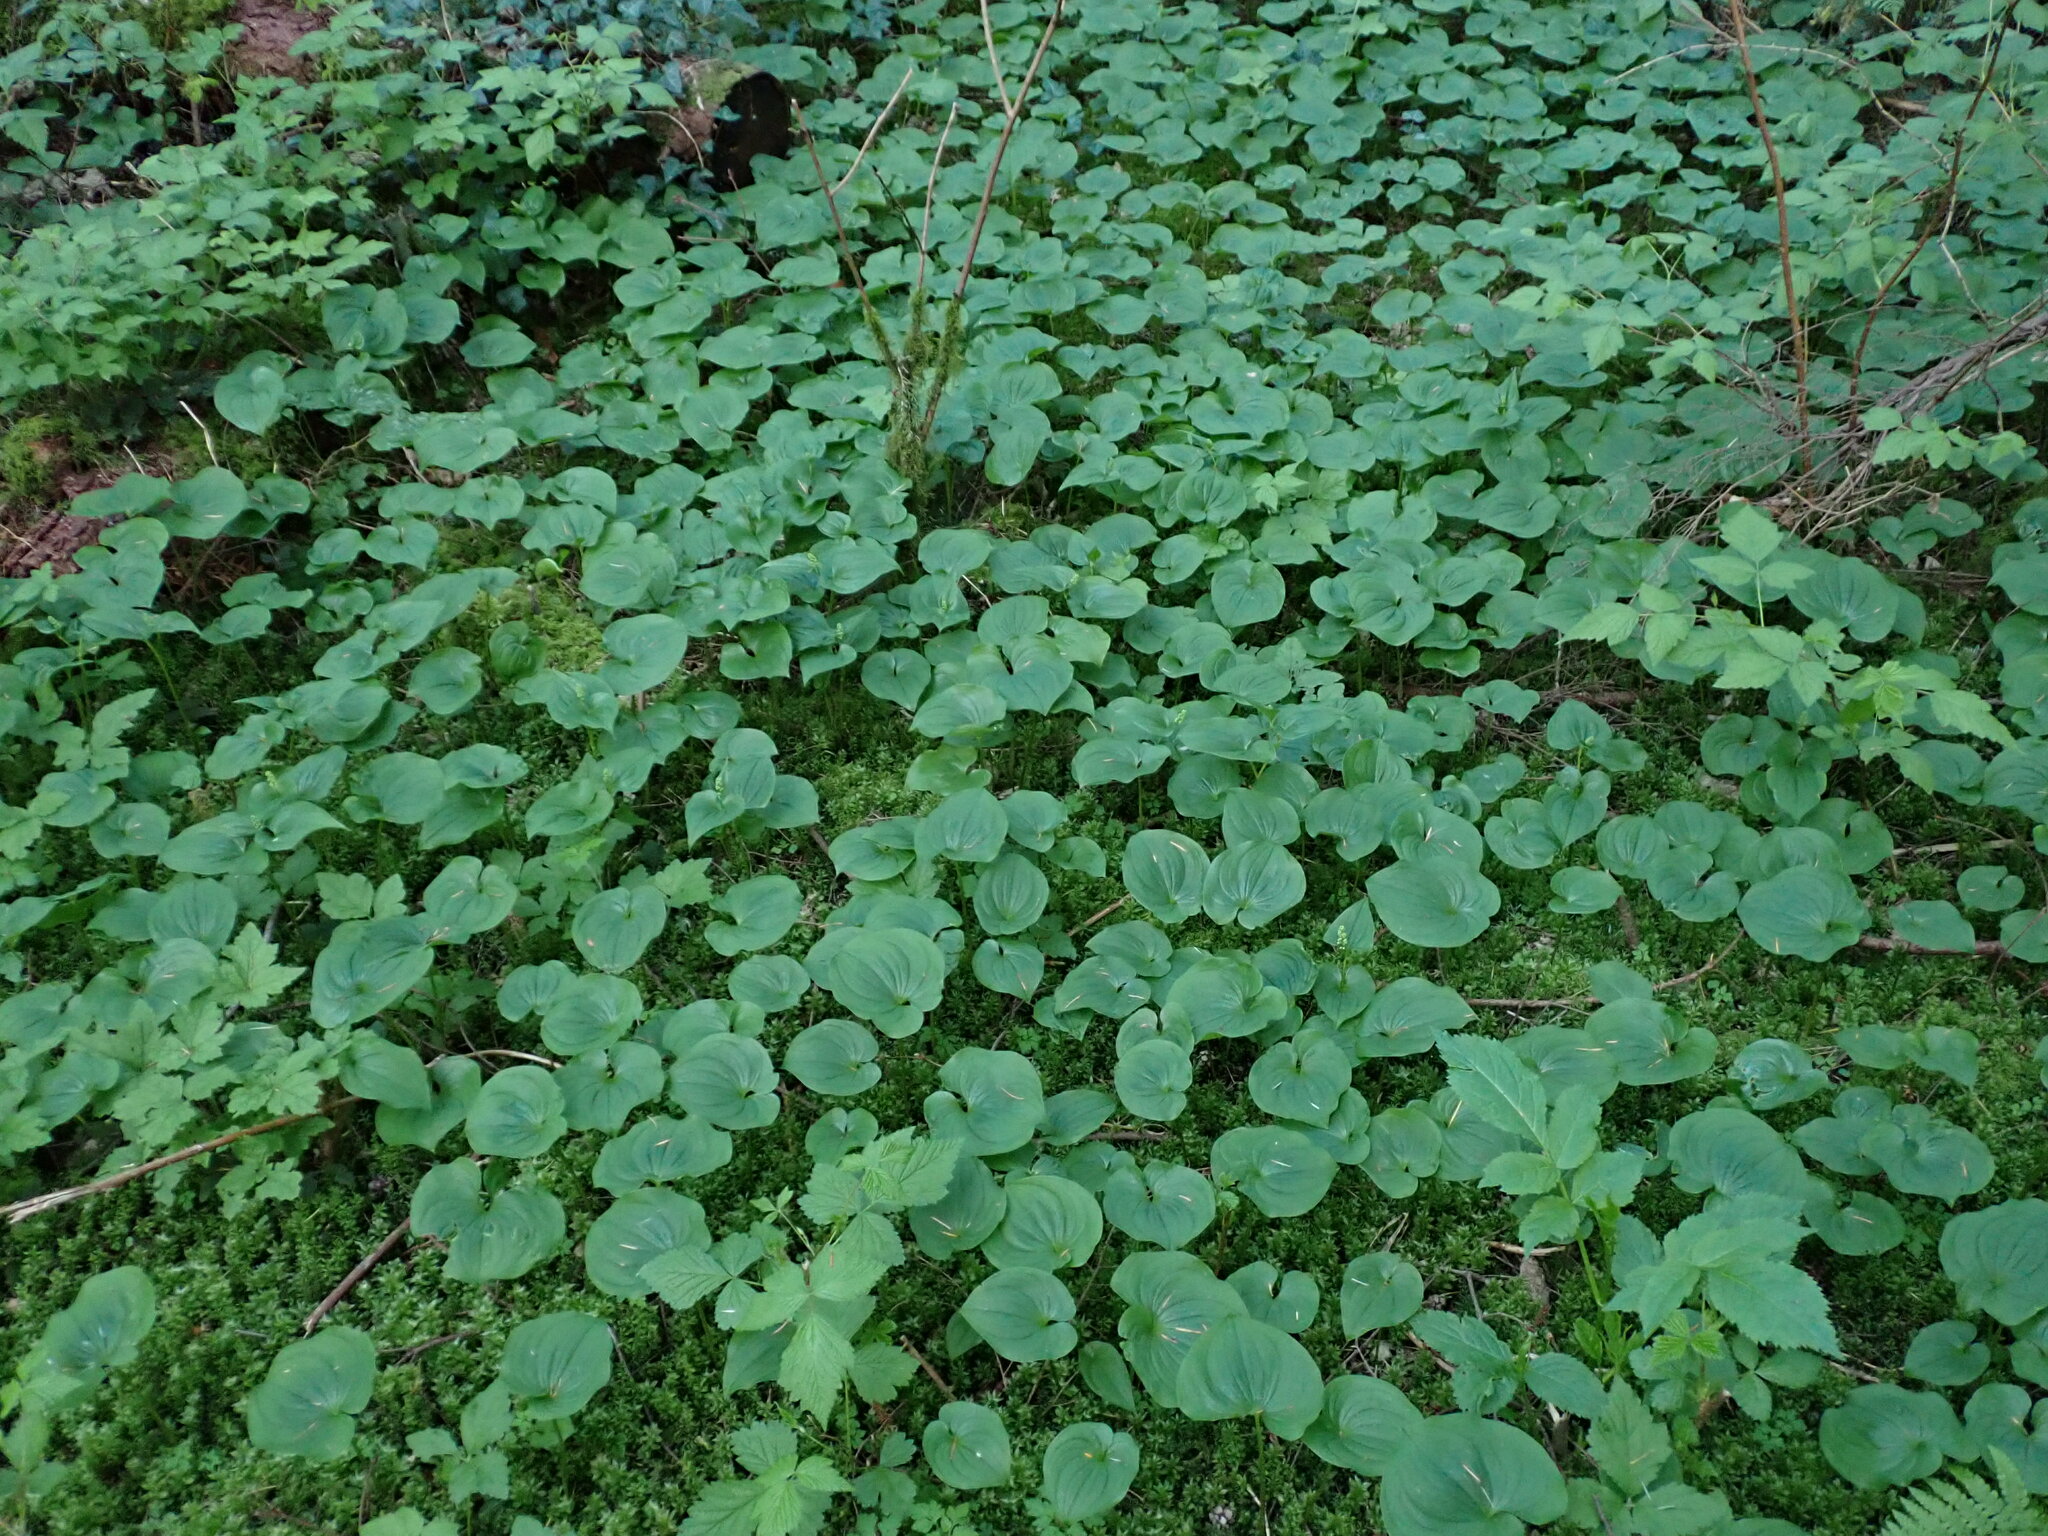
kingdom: Plantae
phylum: Tracheophyta
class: Liliopsida
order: Asparagales
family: Asparagaceae
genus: Maianthemum
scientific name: Maianthemum dilatatum
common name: False lily-of-the-valley
